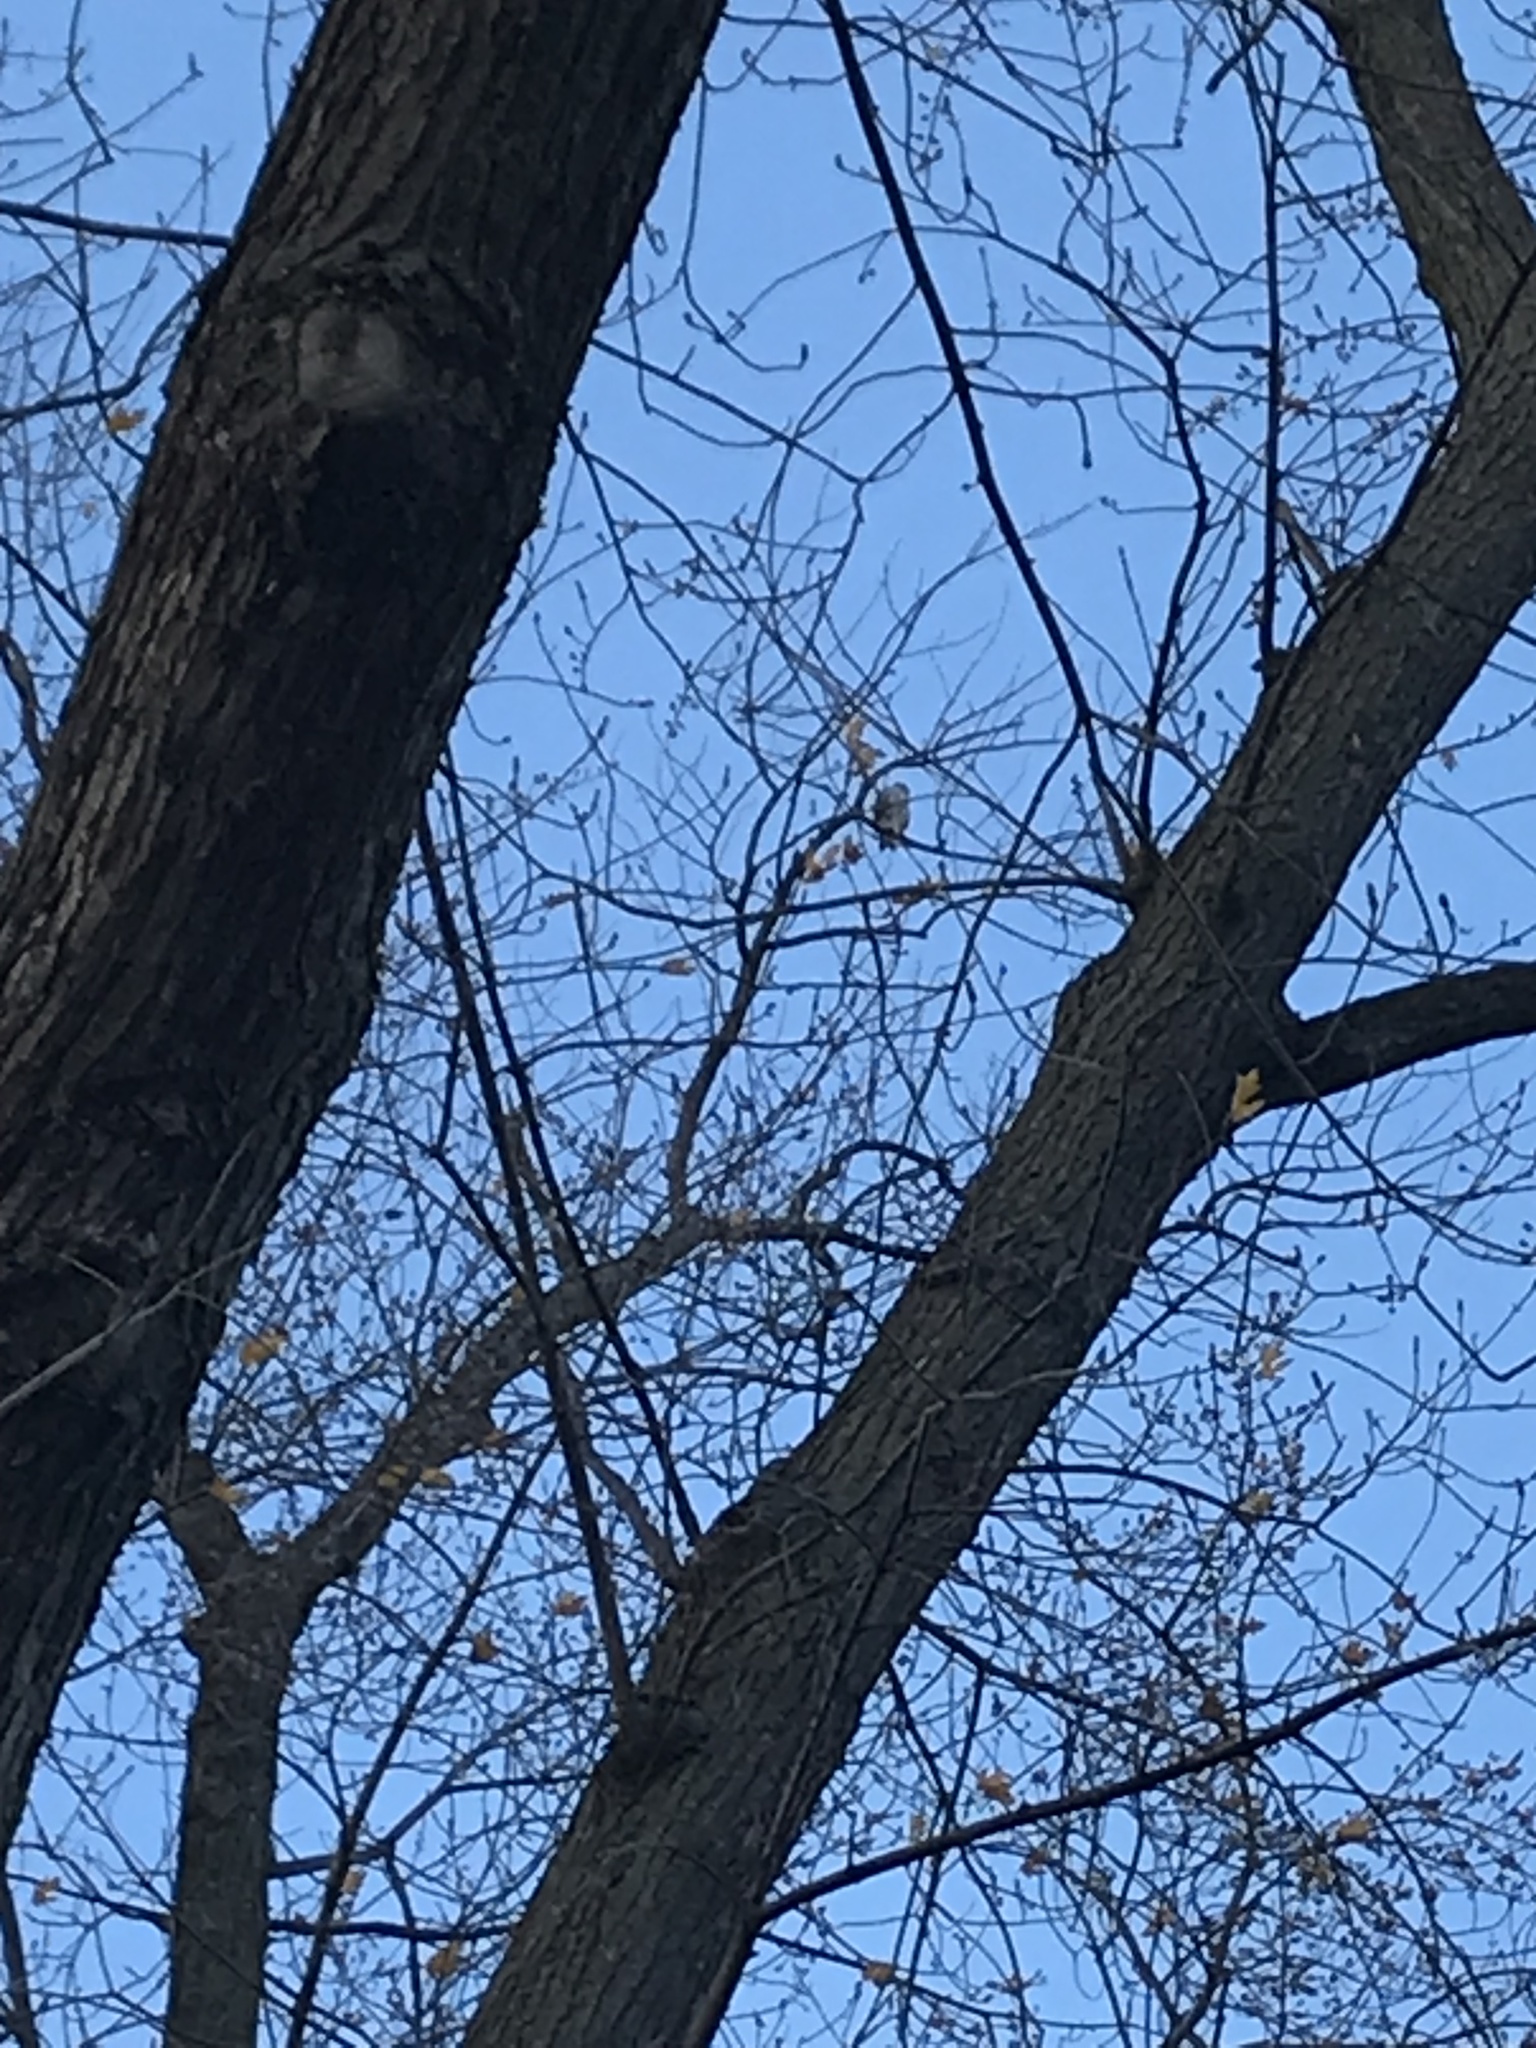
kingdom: Animalia
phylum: Chordata
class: Aves
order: Accipitriformes
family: Accipitridae
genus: Accipiter
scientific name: Accipiter striatus
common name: Sharp-shinned hawk
